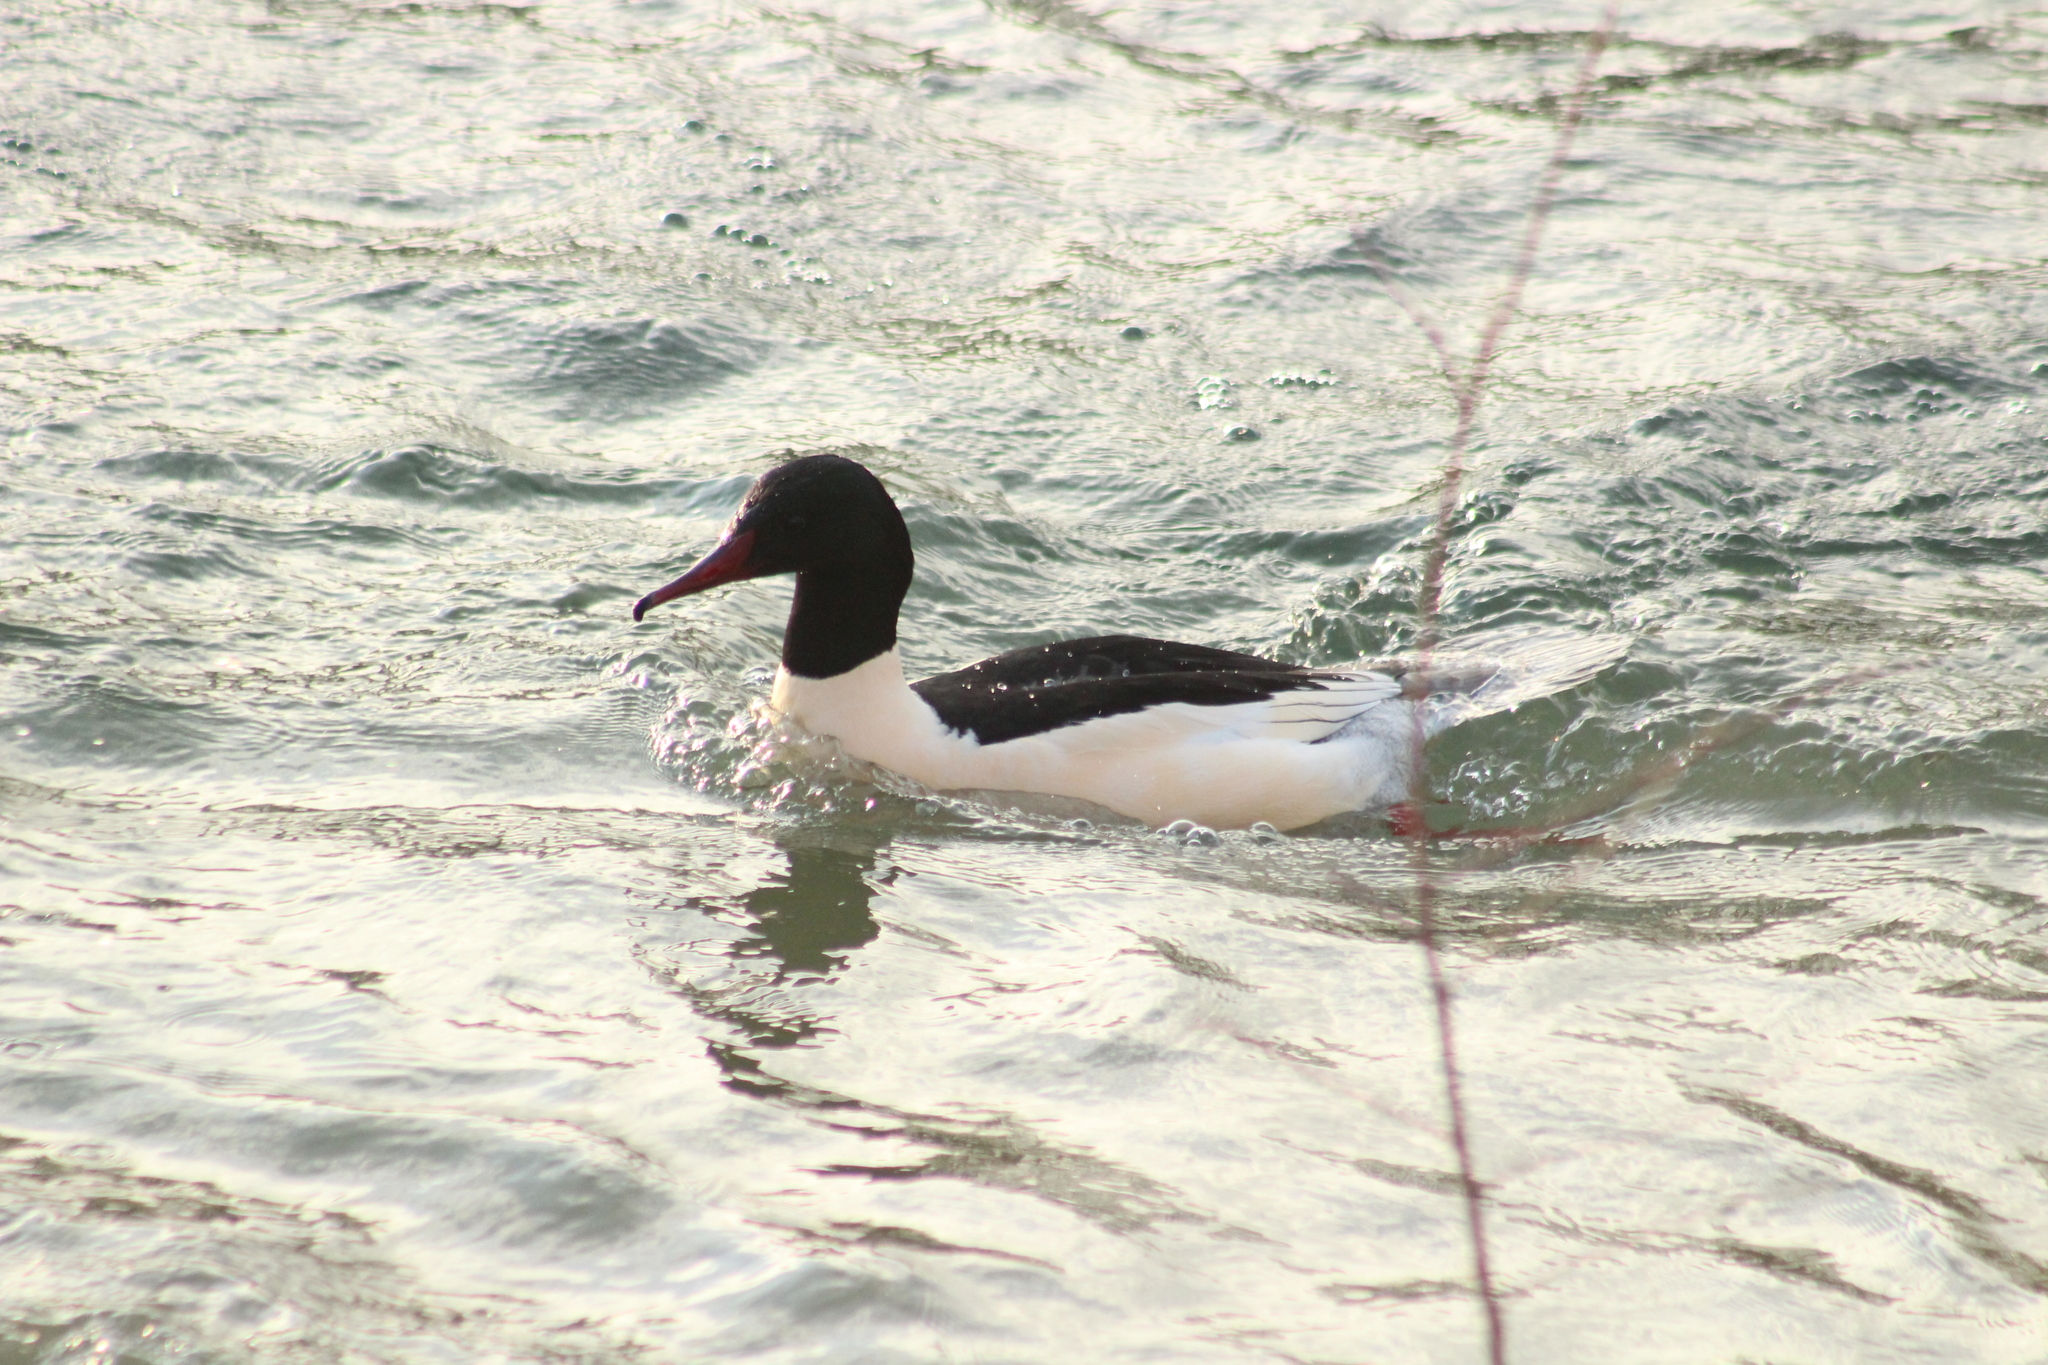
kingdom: Animalia
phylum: Chordata
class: Aves
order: Anseriformes
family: Anatidae
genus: Mergus
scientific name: Mergus merganser
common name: Common merganser
